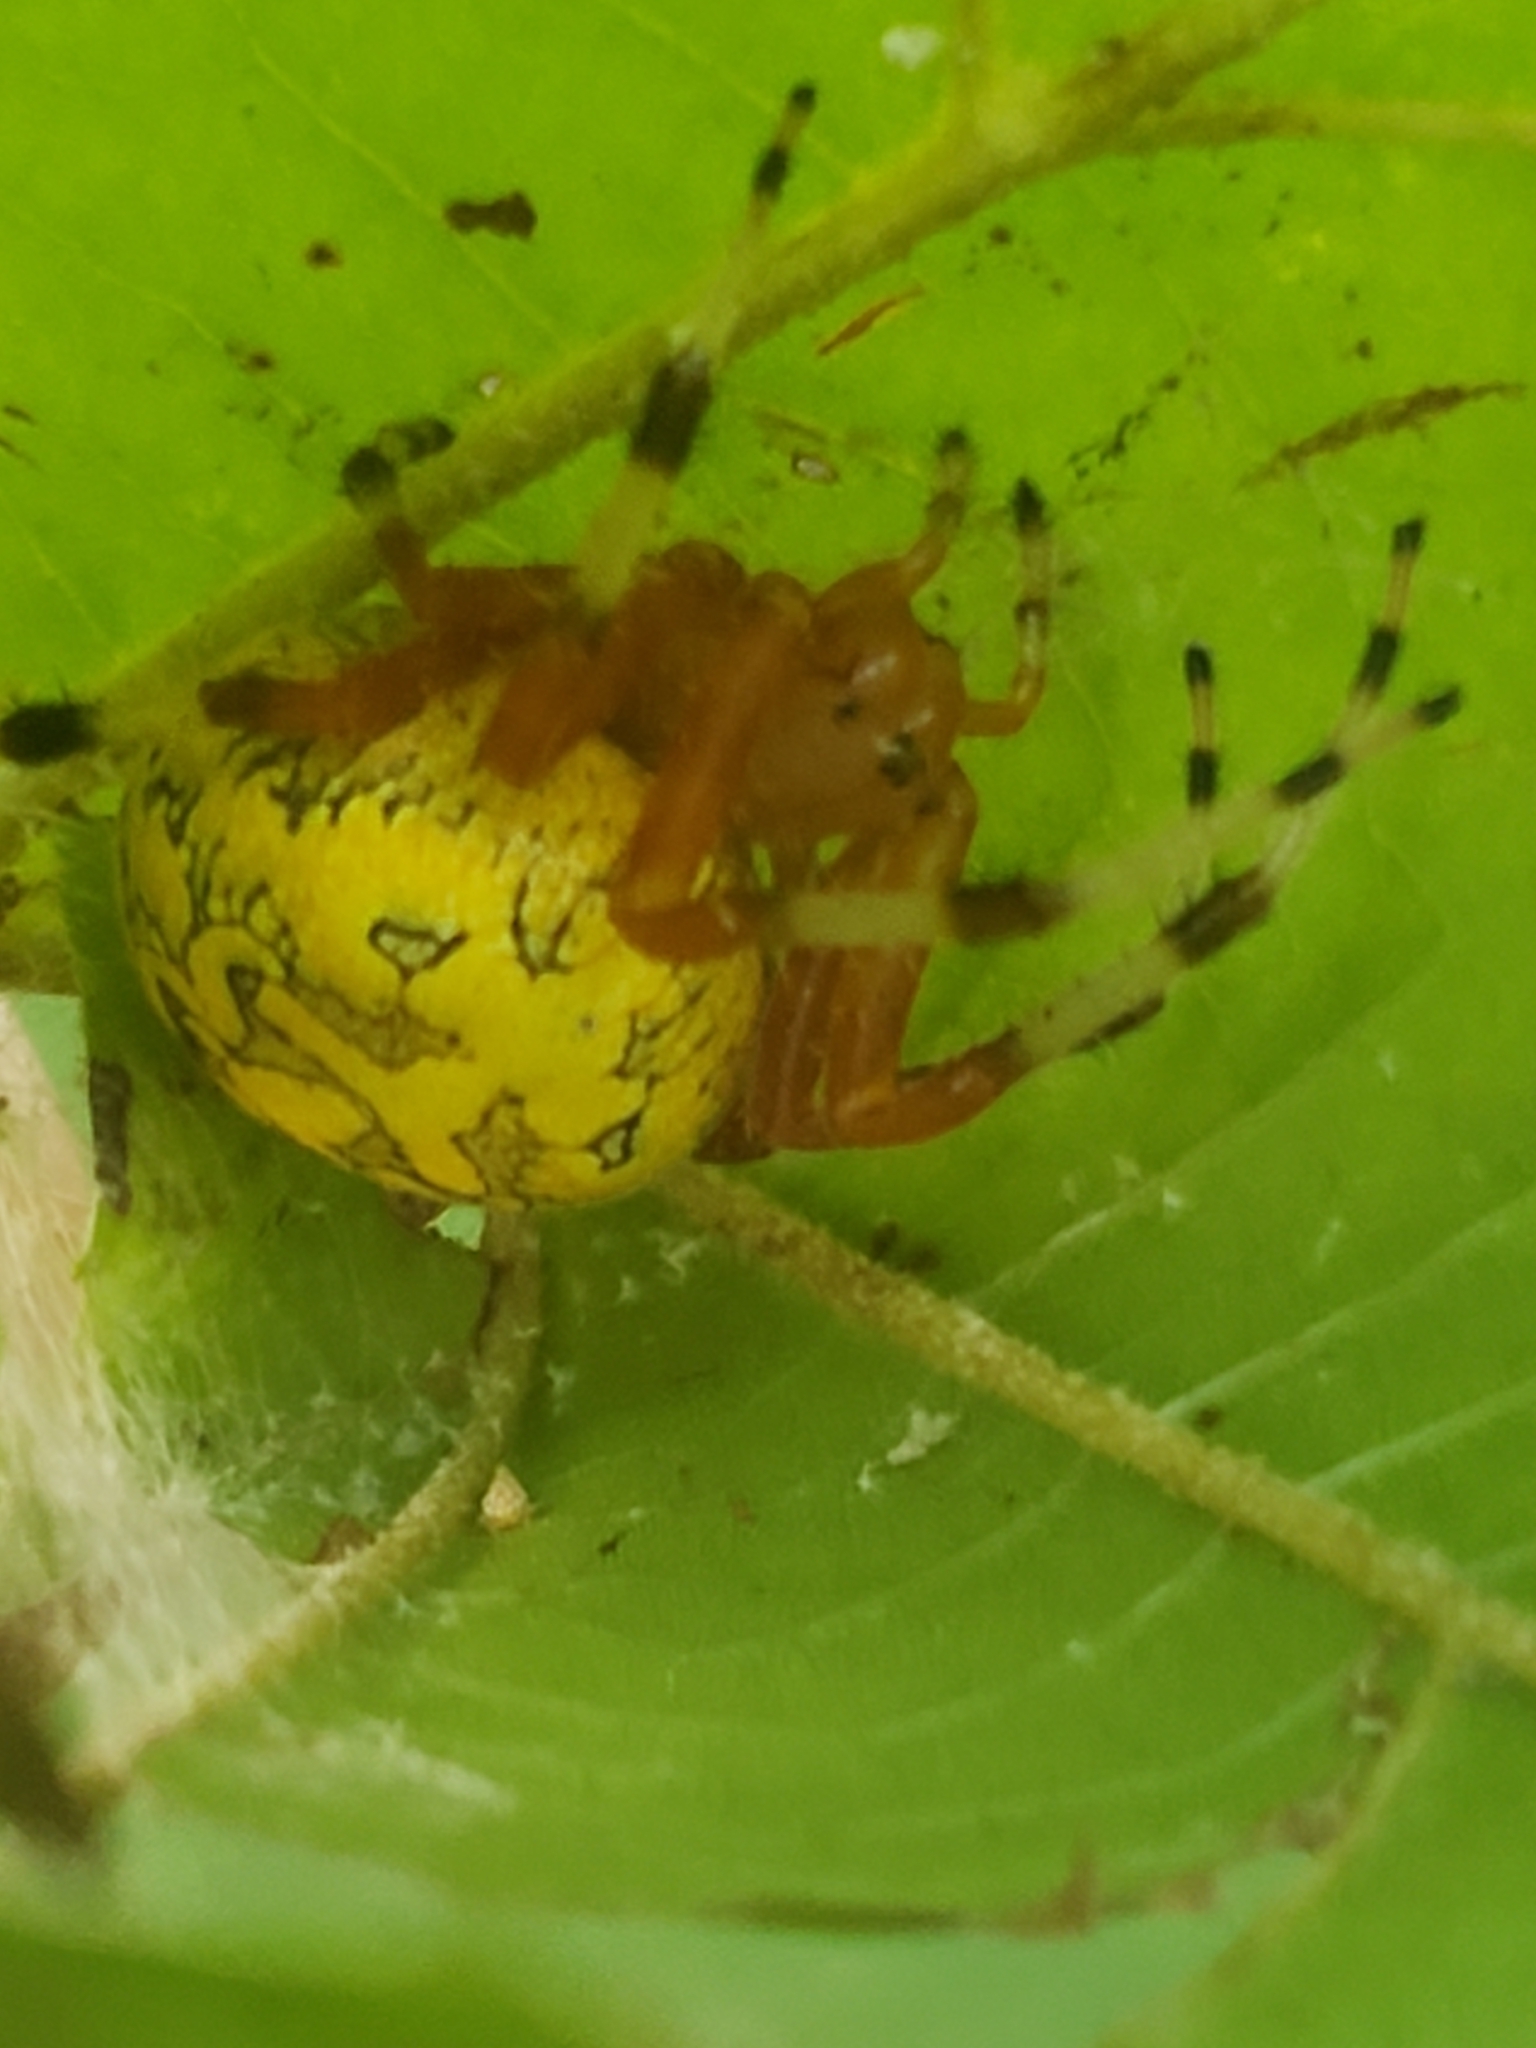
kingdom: Animalia
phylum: Arthropoda
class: Arachnida
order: Araneae
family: Araneidae
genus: Araneus
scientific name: Araneus marmoreus
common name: Marbled orbweaver
